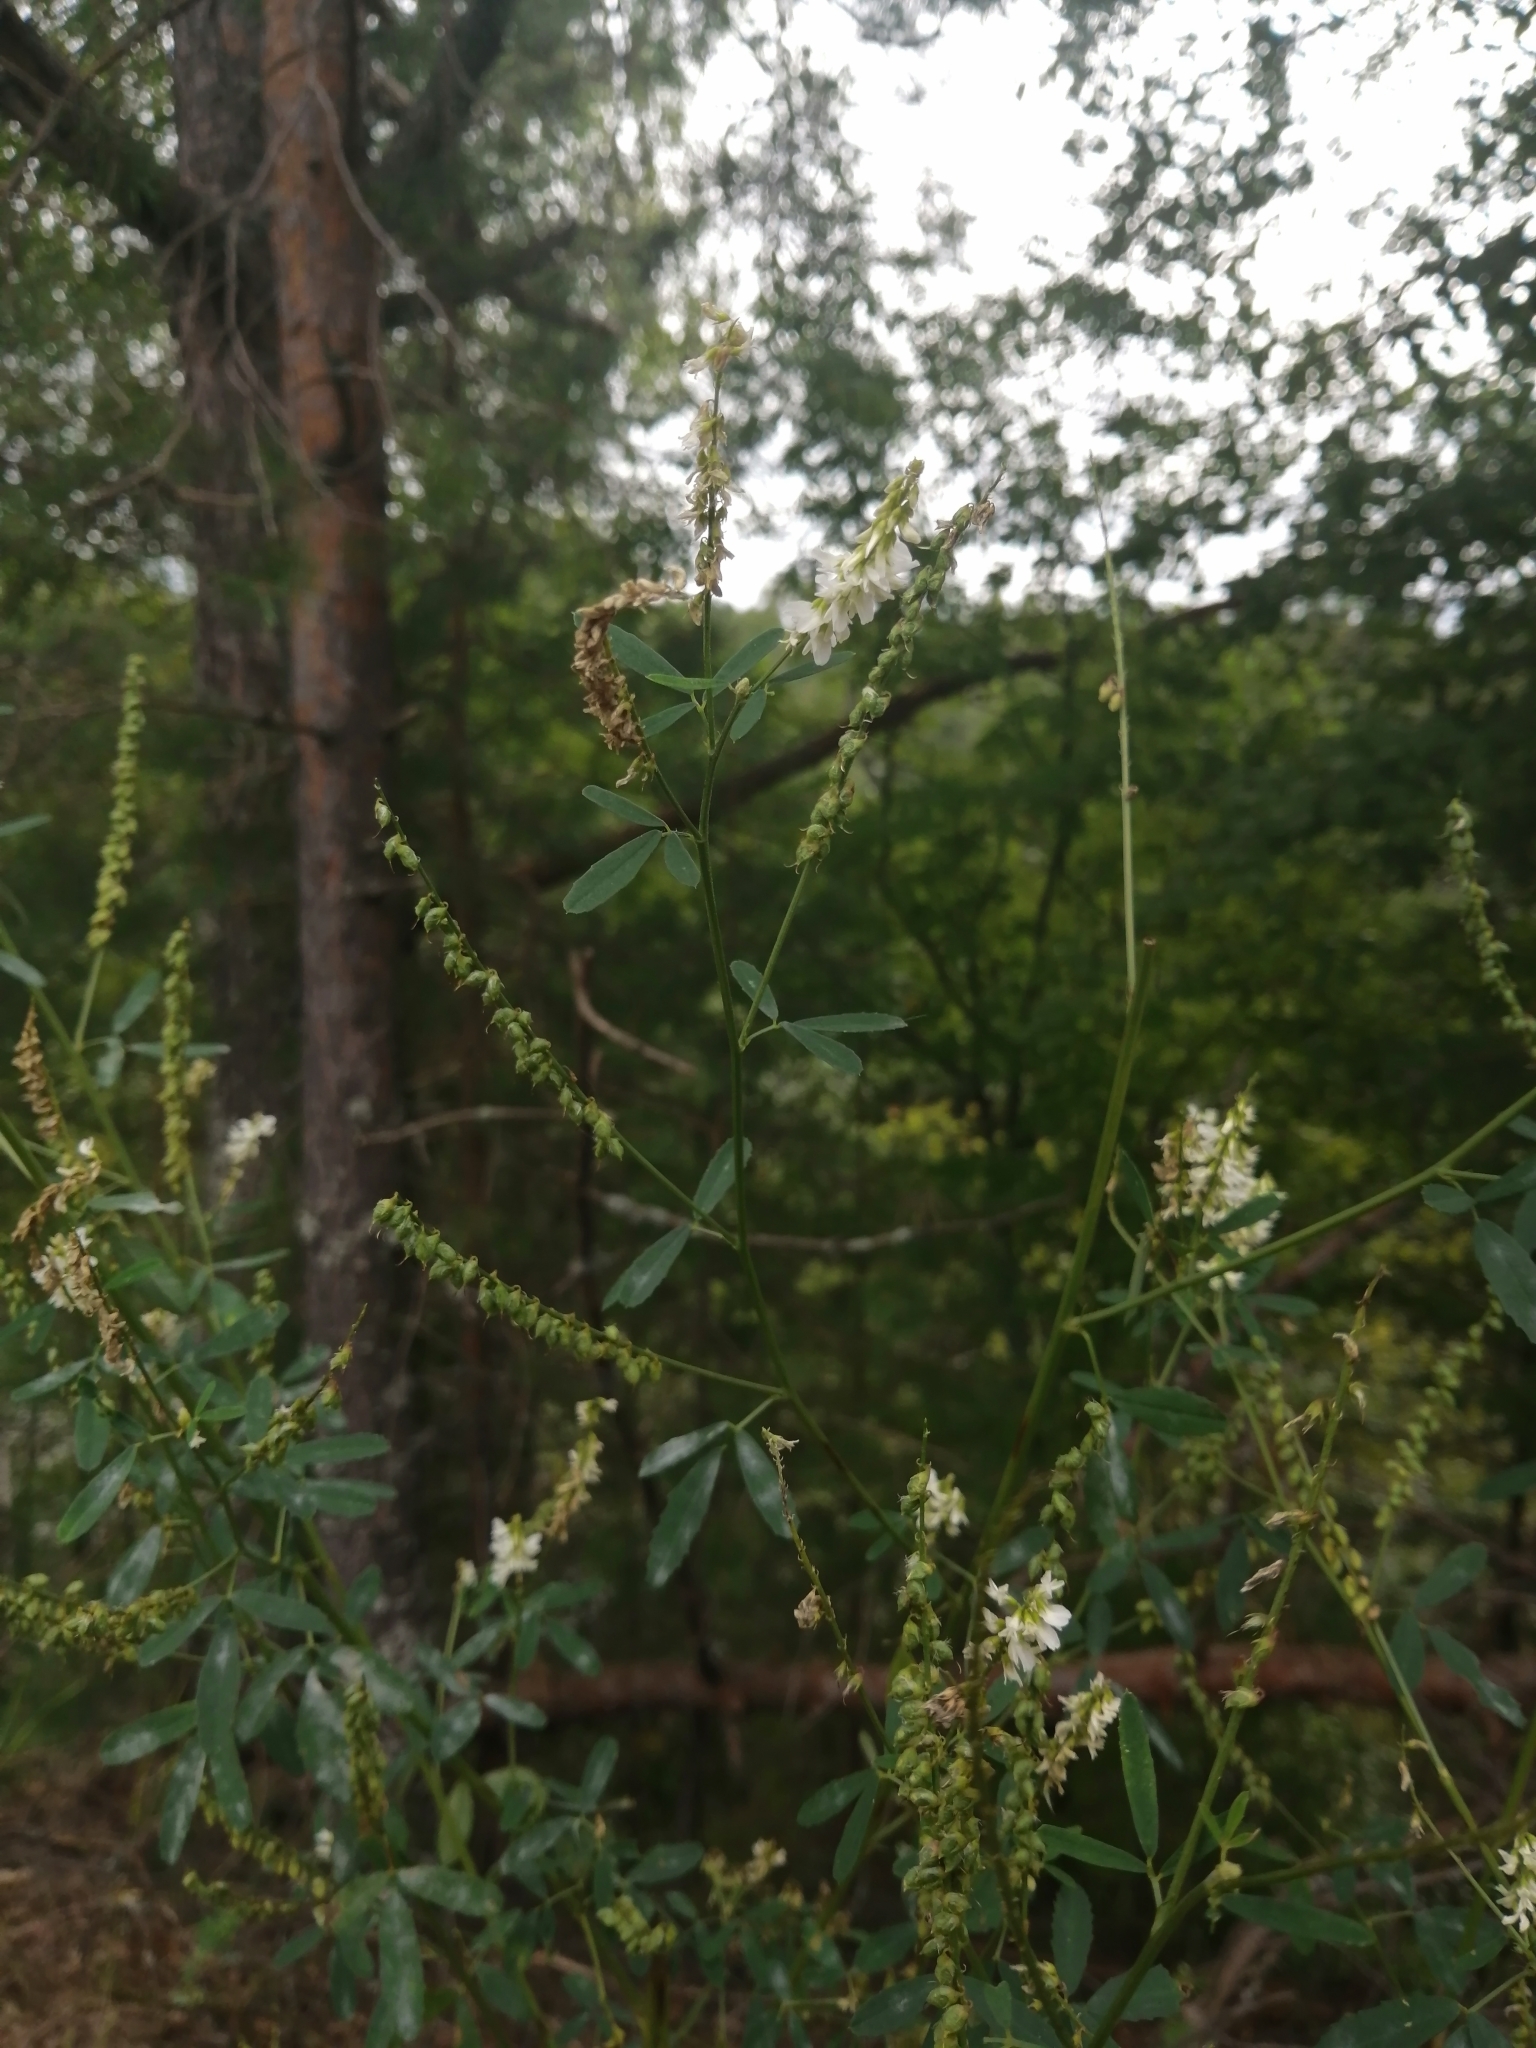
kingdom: Plantae
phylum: Tracheophyta
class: Magnoliopsida
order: Fabales
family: Fabaceae
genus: Melilotus
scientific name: Melilotus albus
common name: White melilot
